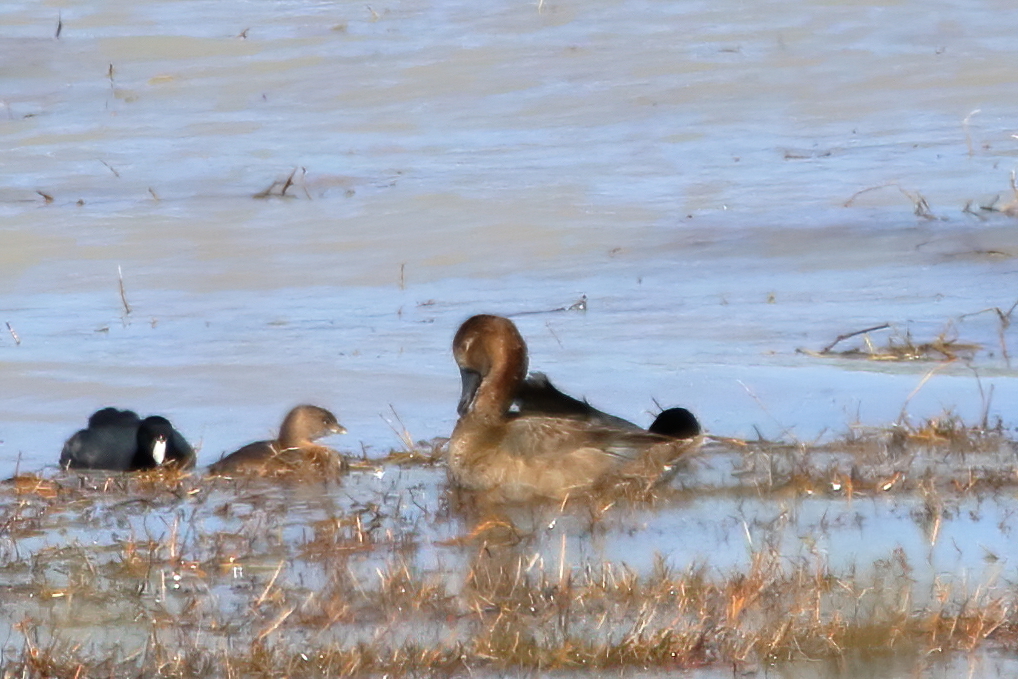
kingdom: Animalia
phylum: Chordata
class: Aves
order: Anseriformes
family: Anatidae
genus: Mareca
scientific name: Mareca strepera
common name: Gadwall
